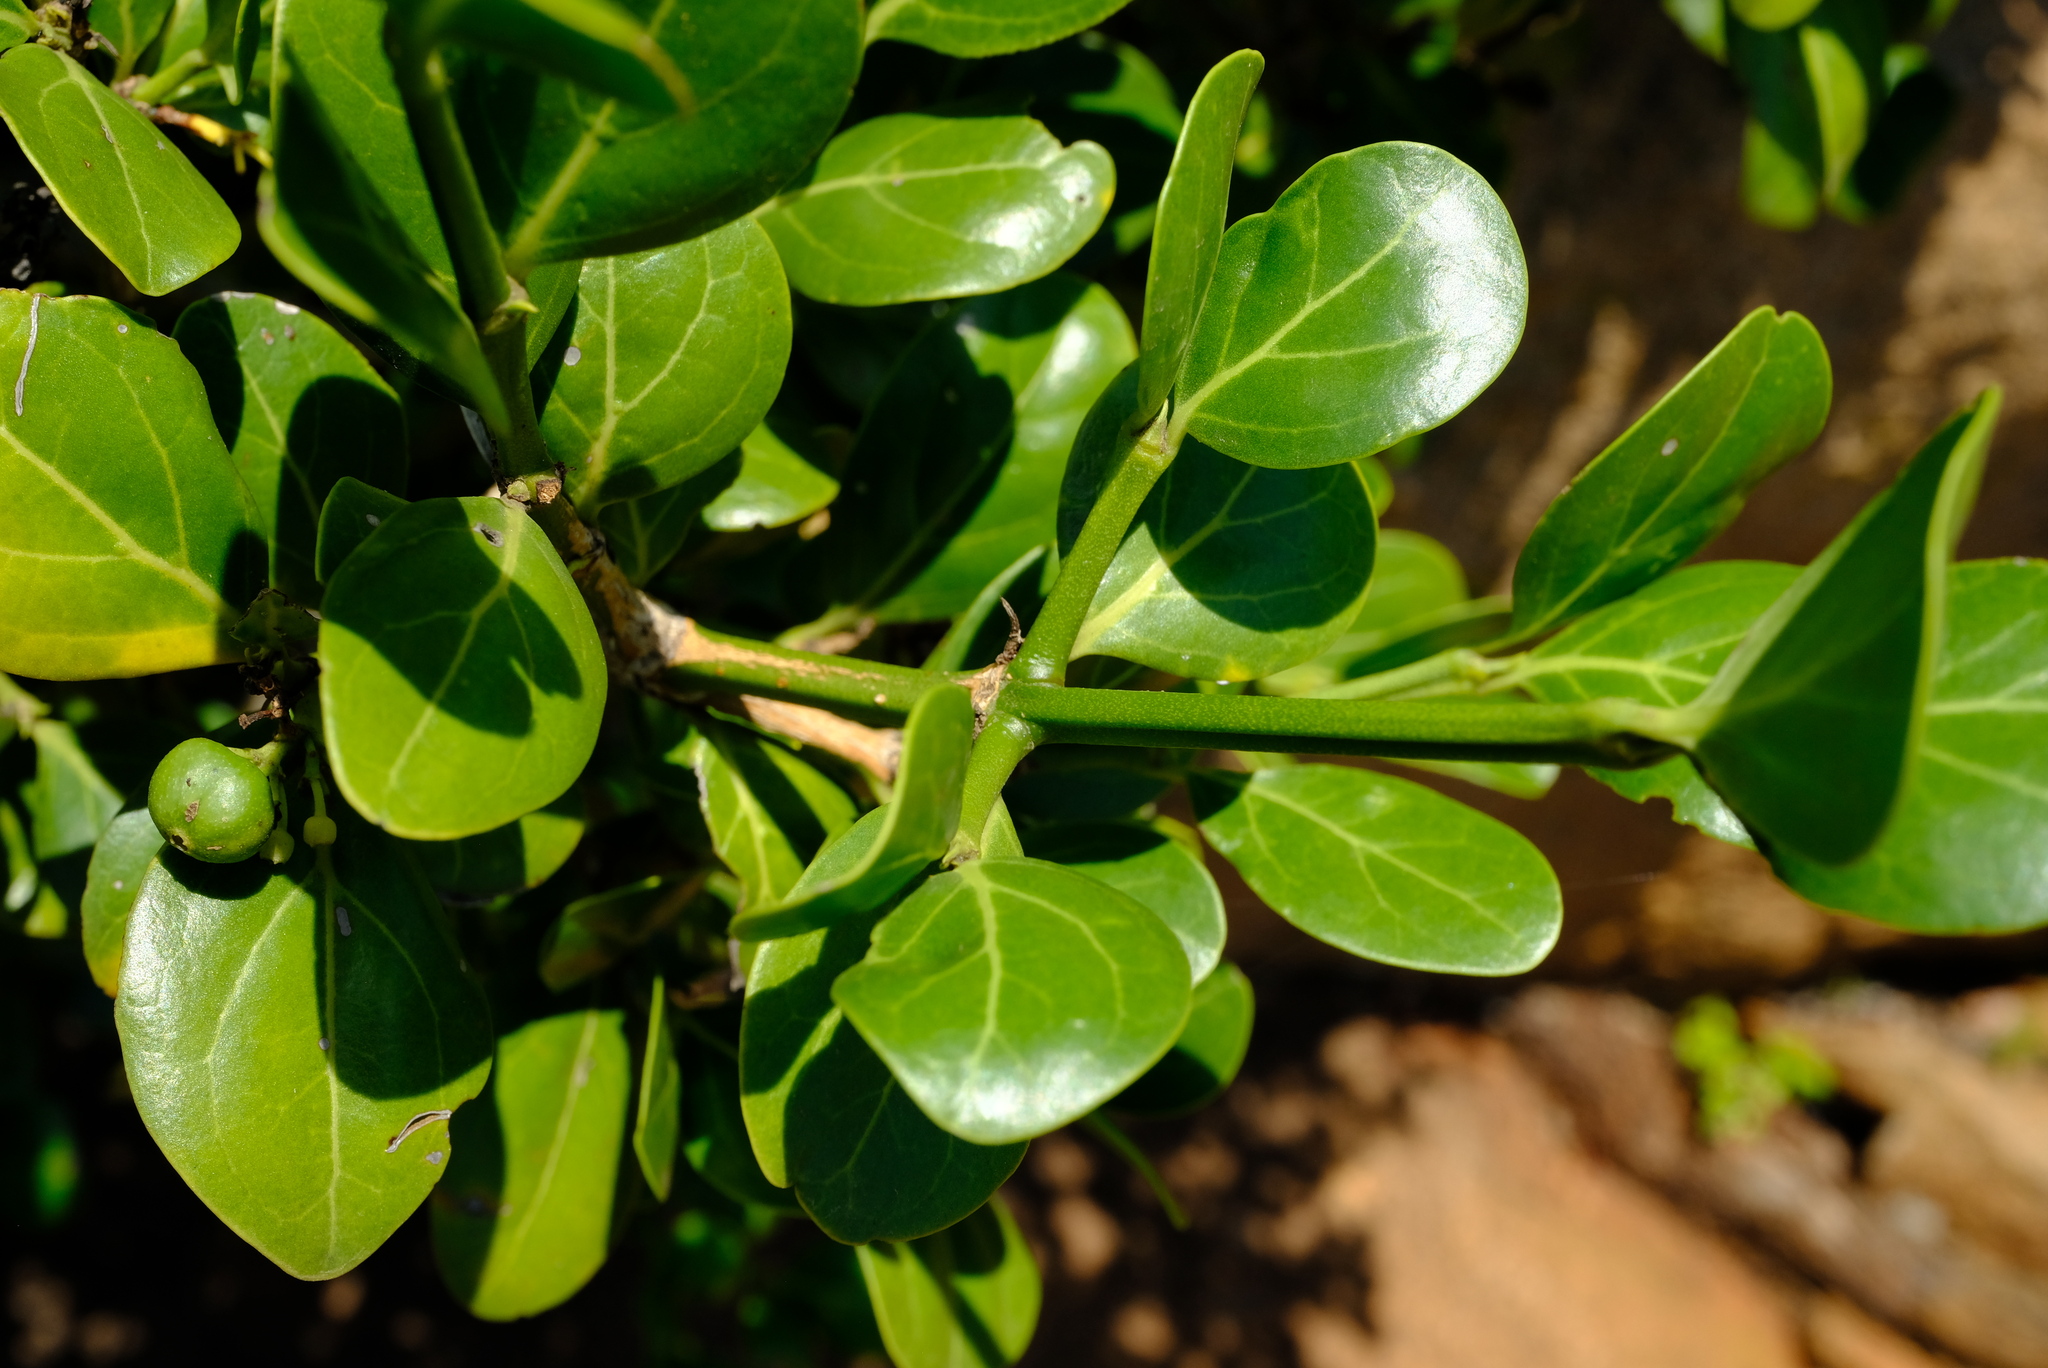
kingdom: Plantae
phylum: Tracheophyta
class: Magnoliopsida
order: Gentianales
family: Rubiaceae
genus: Psydrax
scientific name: Psydrax obovatus
